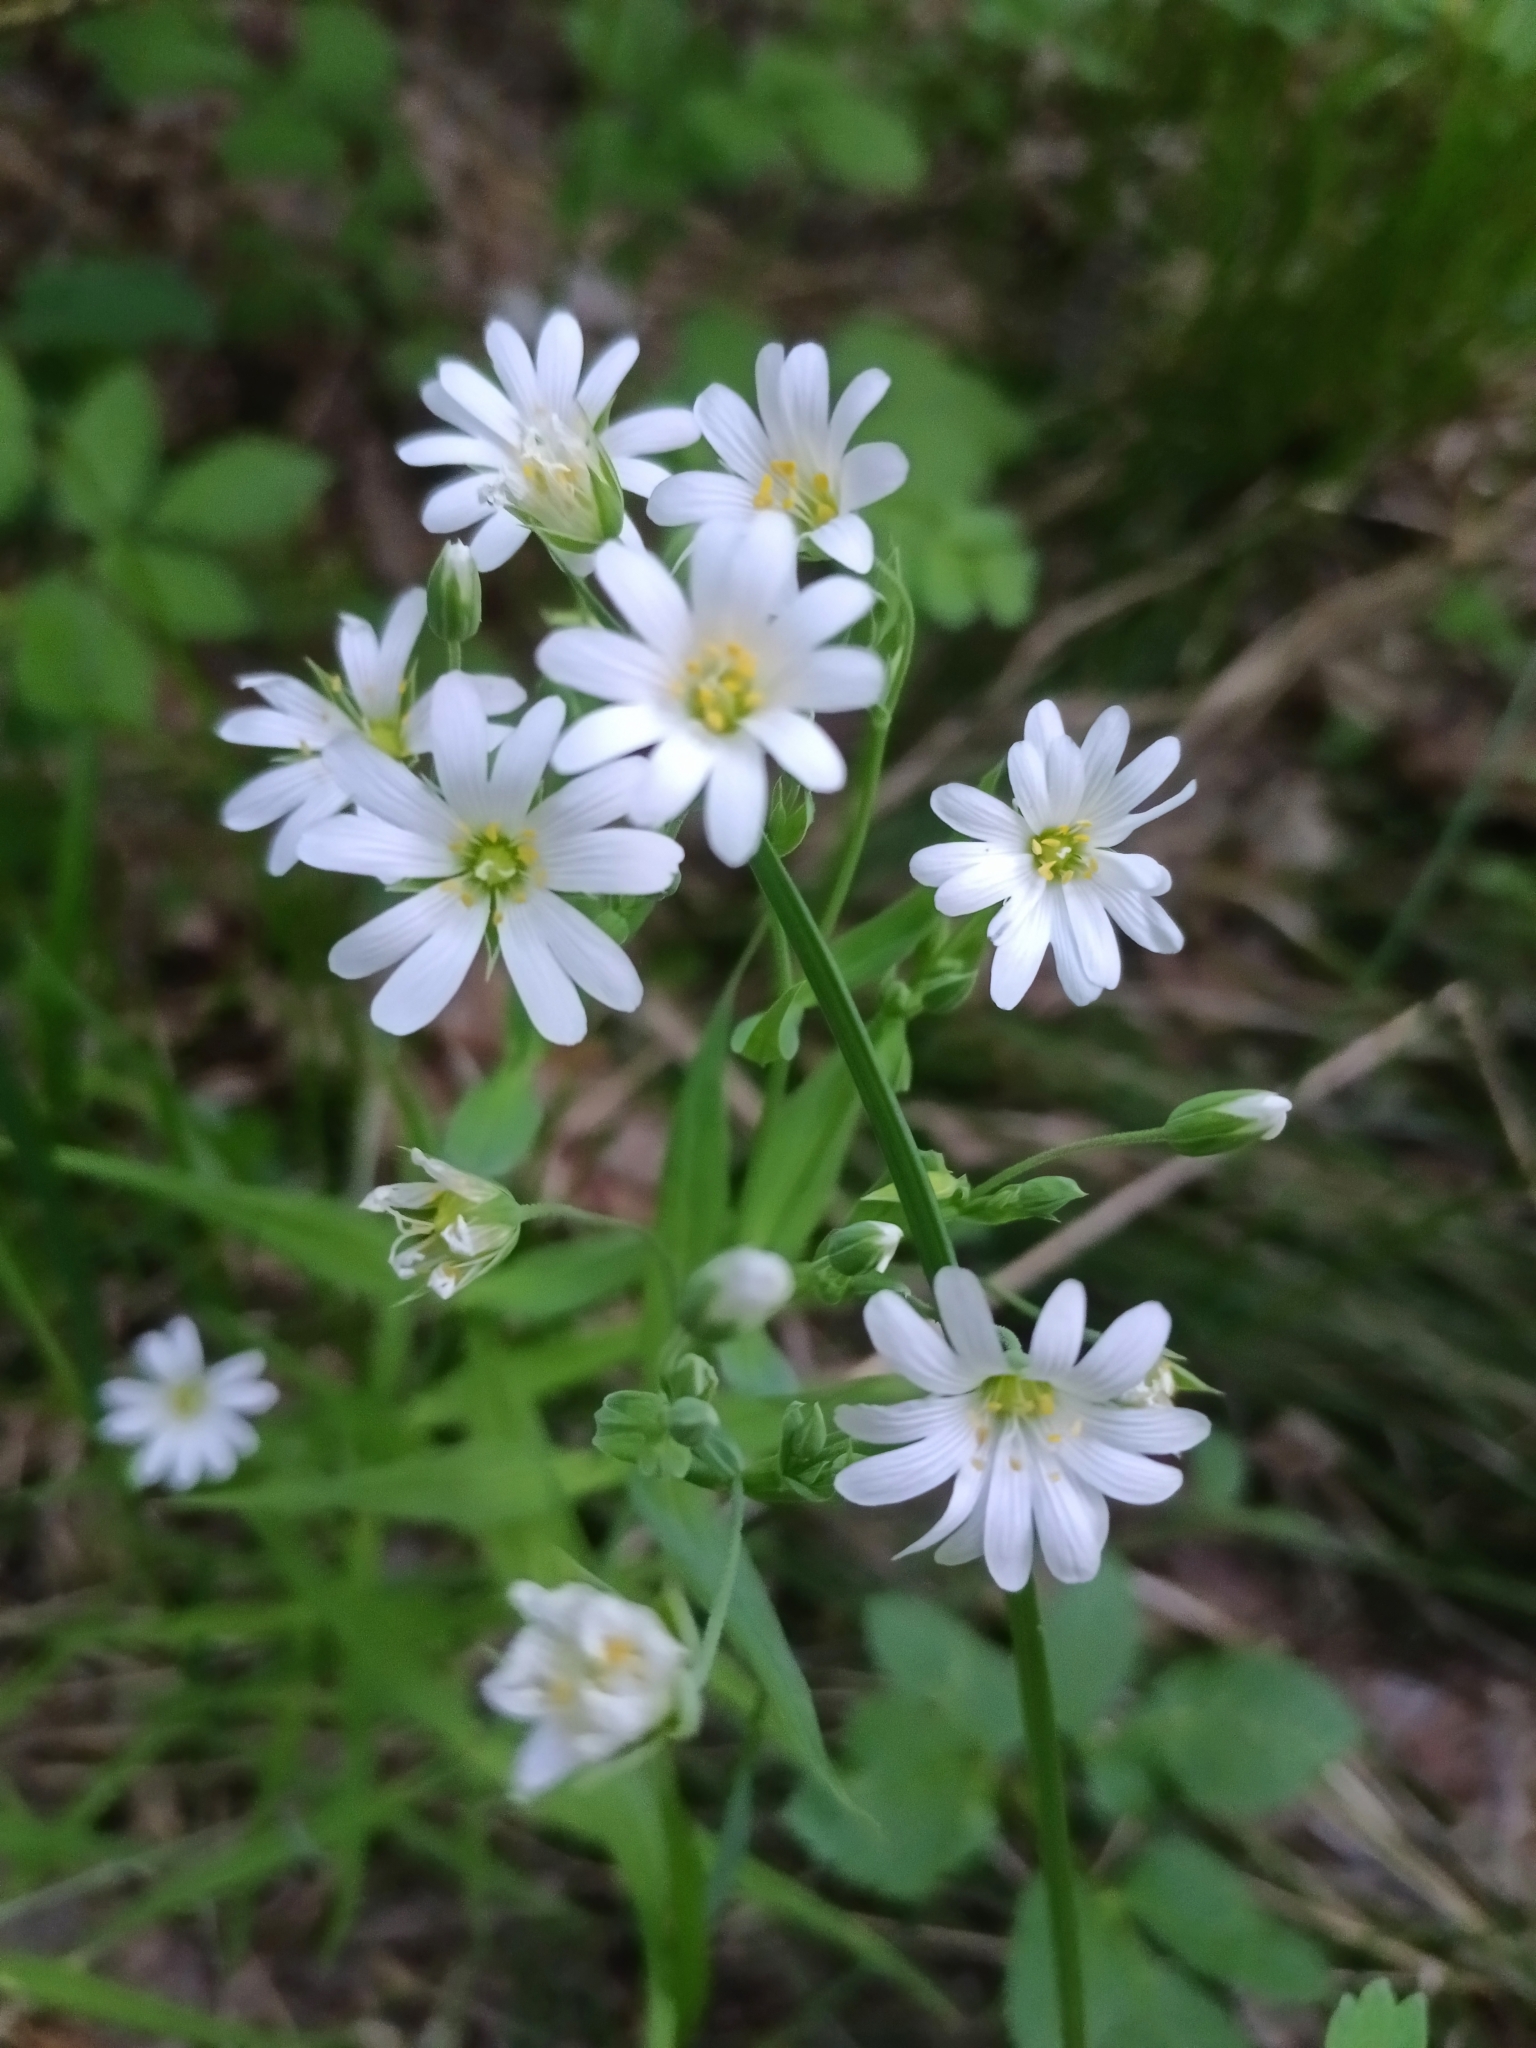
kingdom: Plantae
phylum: Tracheophyta
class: Magnoliopsida
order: Caryophyllales
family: Caryophyllaceae
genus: Rabelera
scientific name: Rabelera holostea
